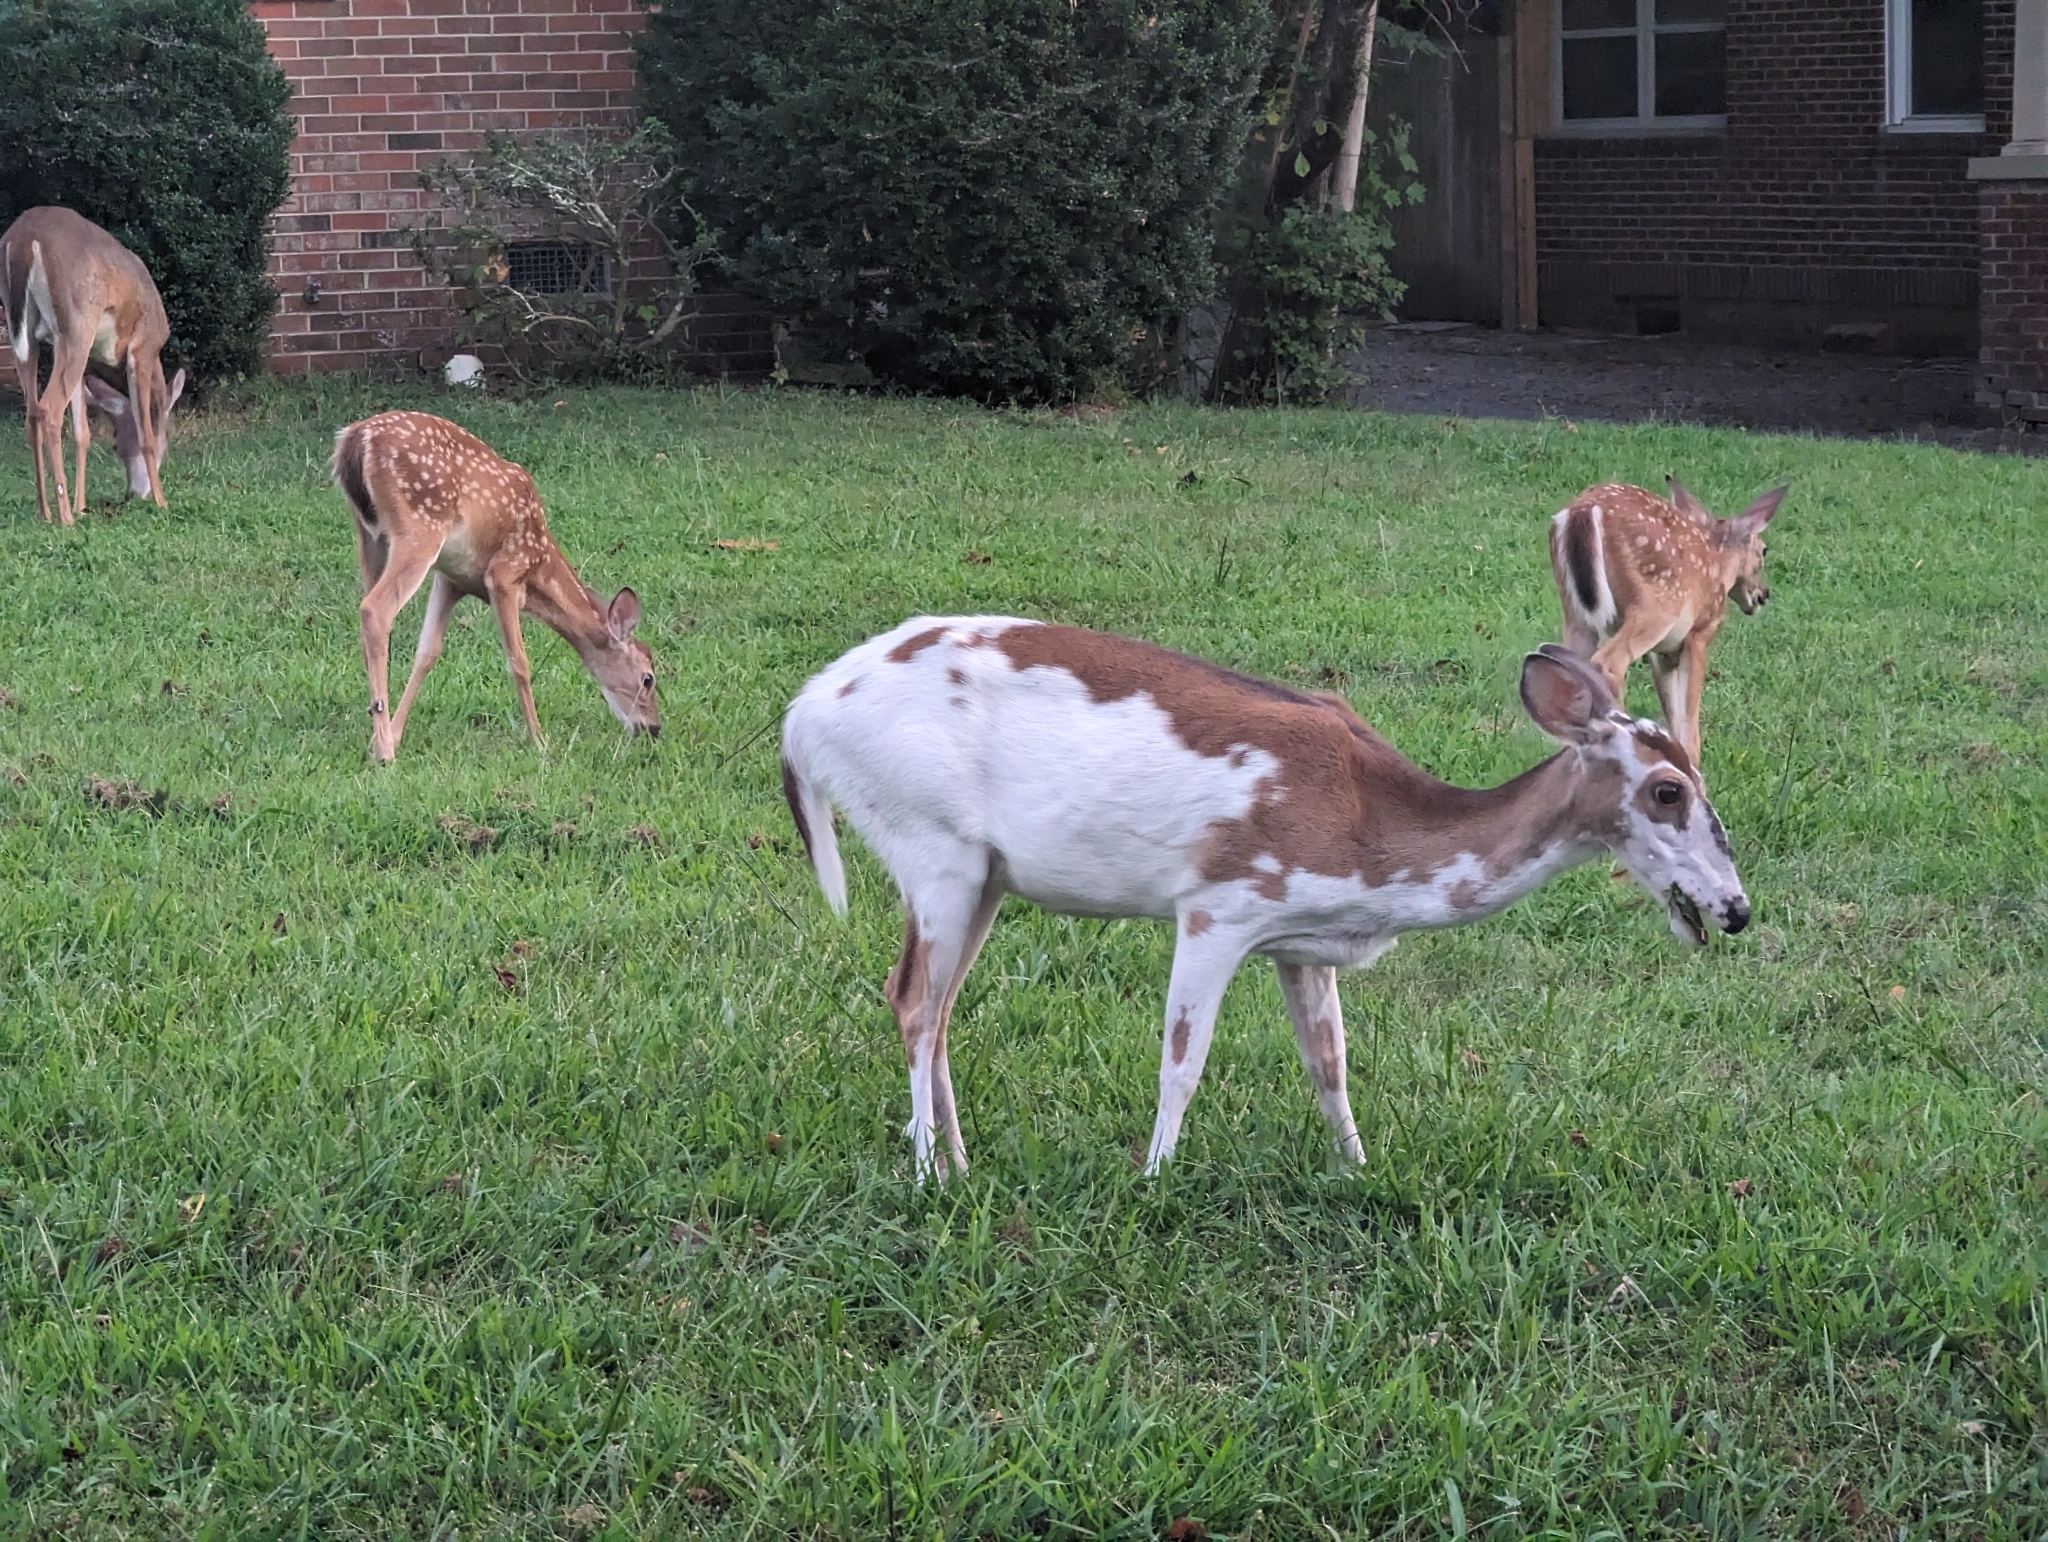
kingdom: Animalia
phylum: Chordata
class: Mammalia
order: Artiodactyla
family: Cervidae
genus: Odocoileus
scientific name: Odocoileus virginianus
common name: White-tailed deer
